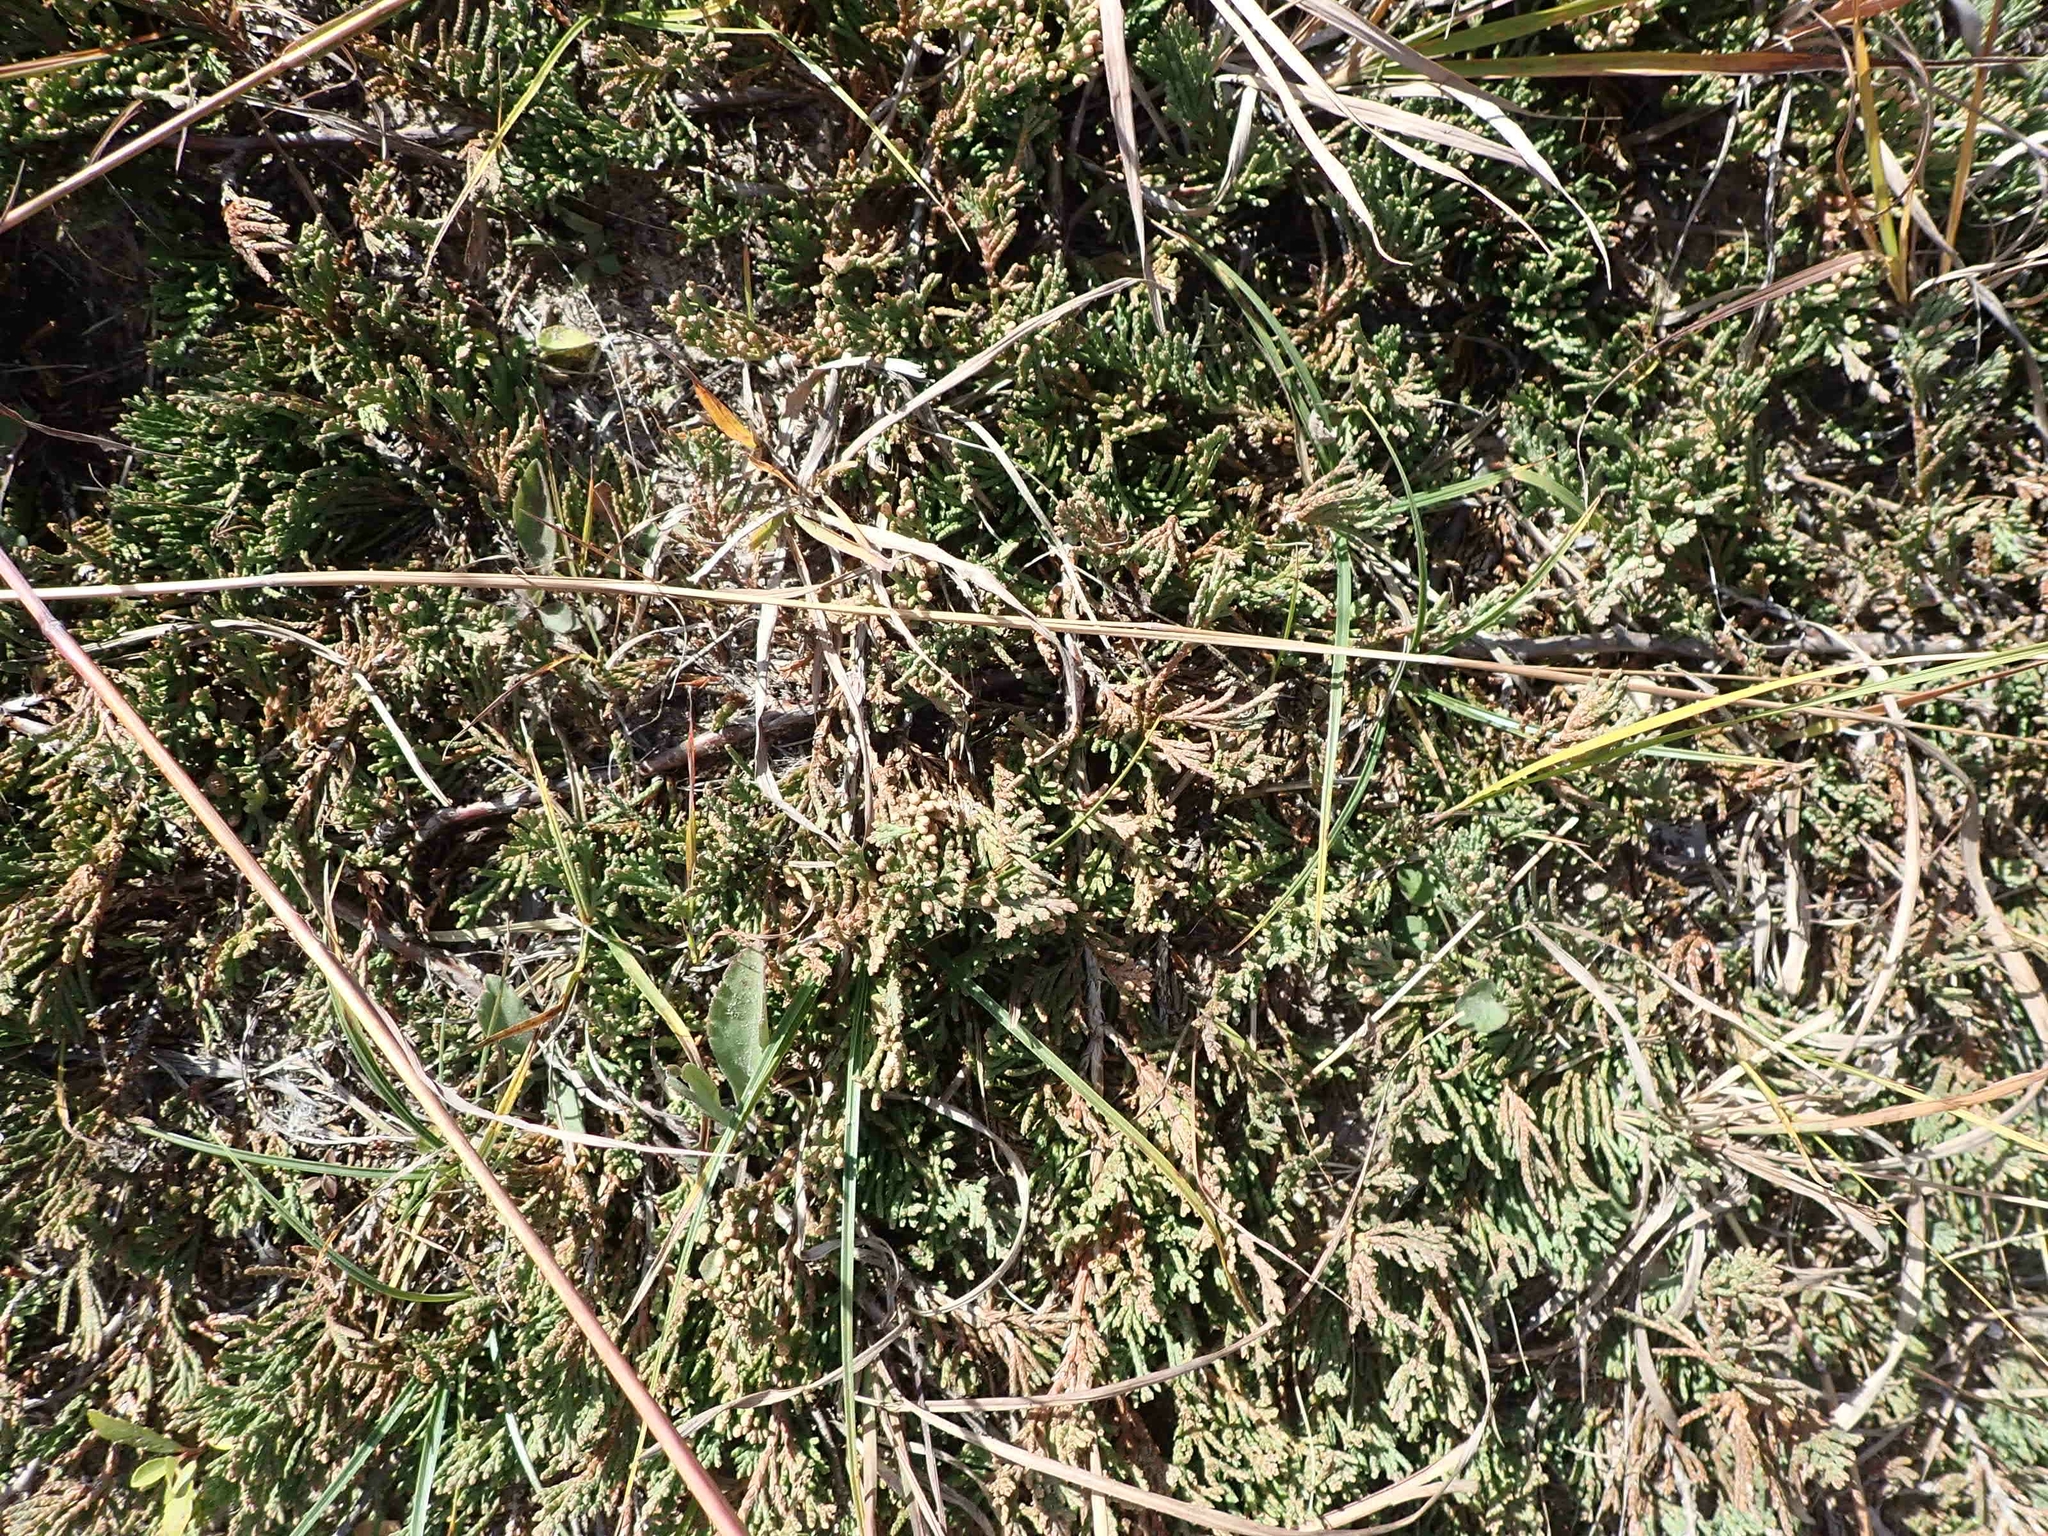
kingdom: Plantae
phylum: Tracheophyta
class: Pinopsida
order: Pinales
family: Cupressaceae
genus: Juniperus
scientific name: Juniperus horizontalis
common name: Creeping juniper
